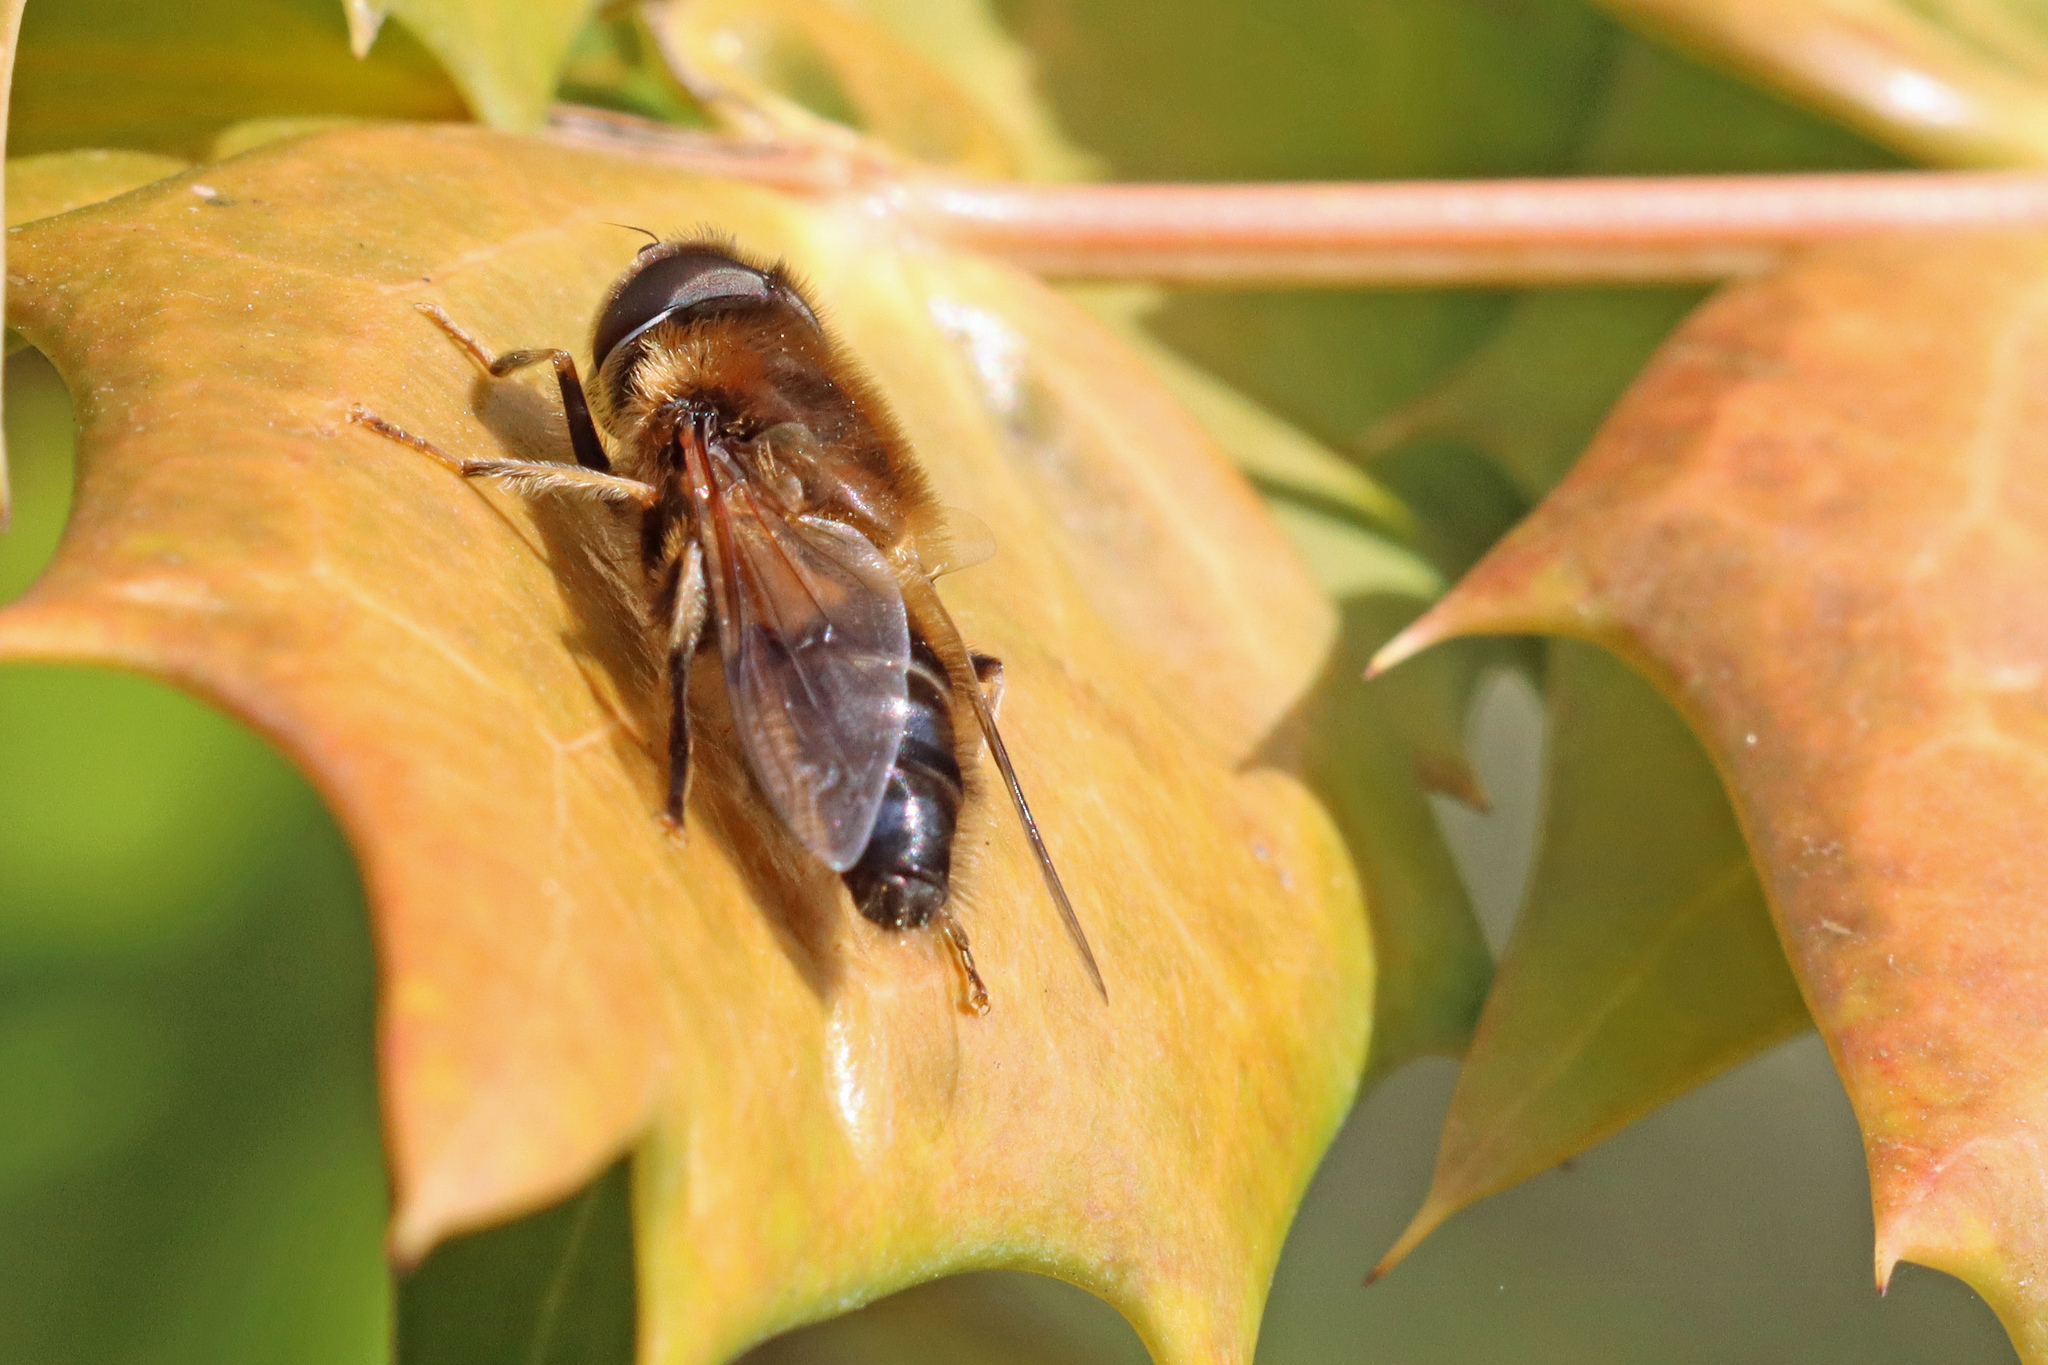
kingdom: Animalia
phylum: Arthropoda
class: Insecta
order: Diptera
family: Syrphidae
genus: Eristalis
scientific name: Eristalis pertinax
